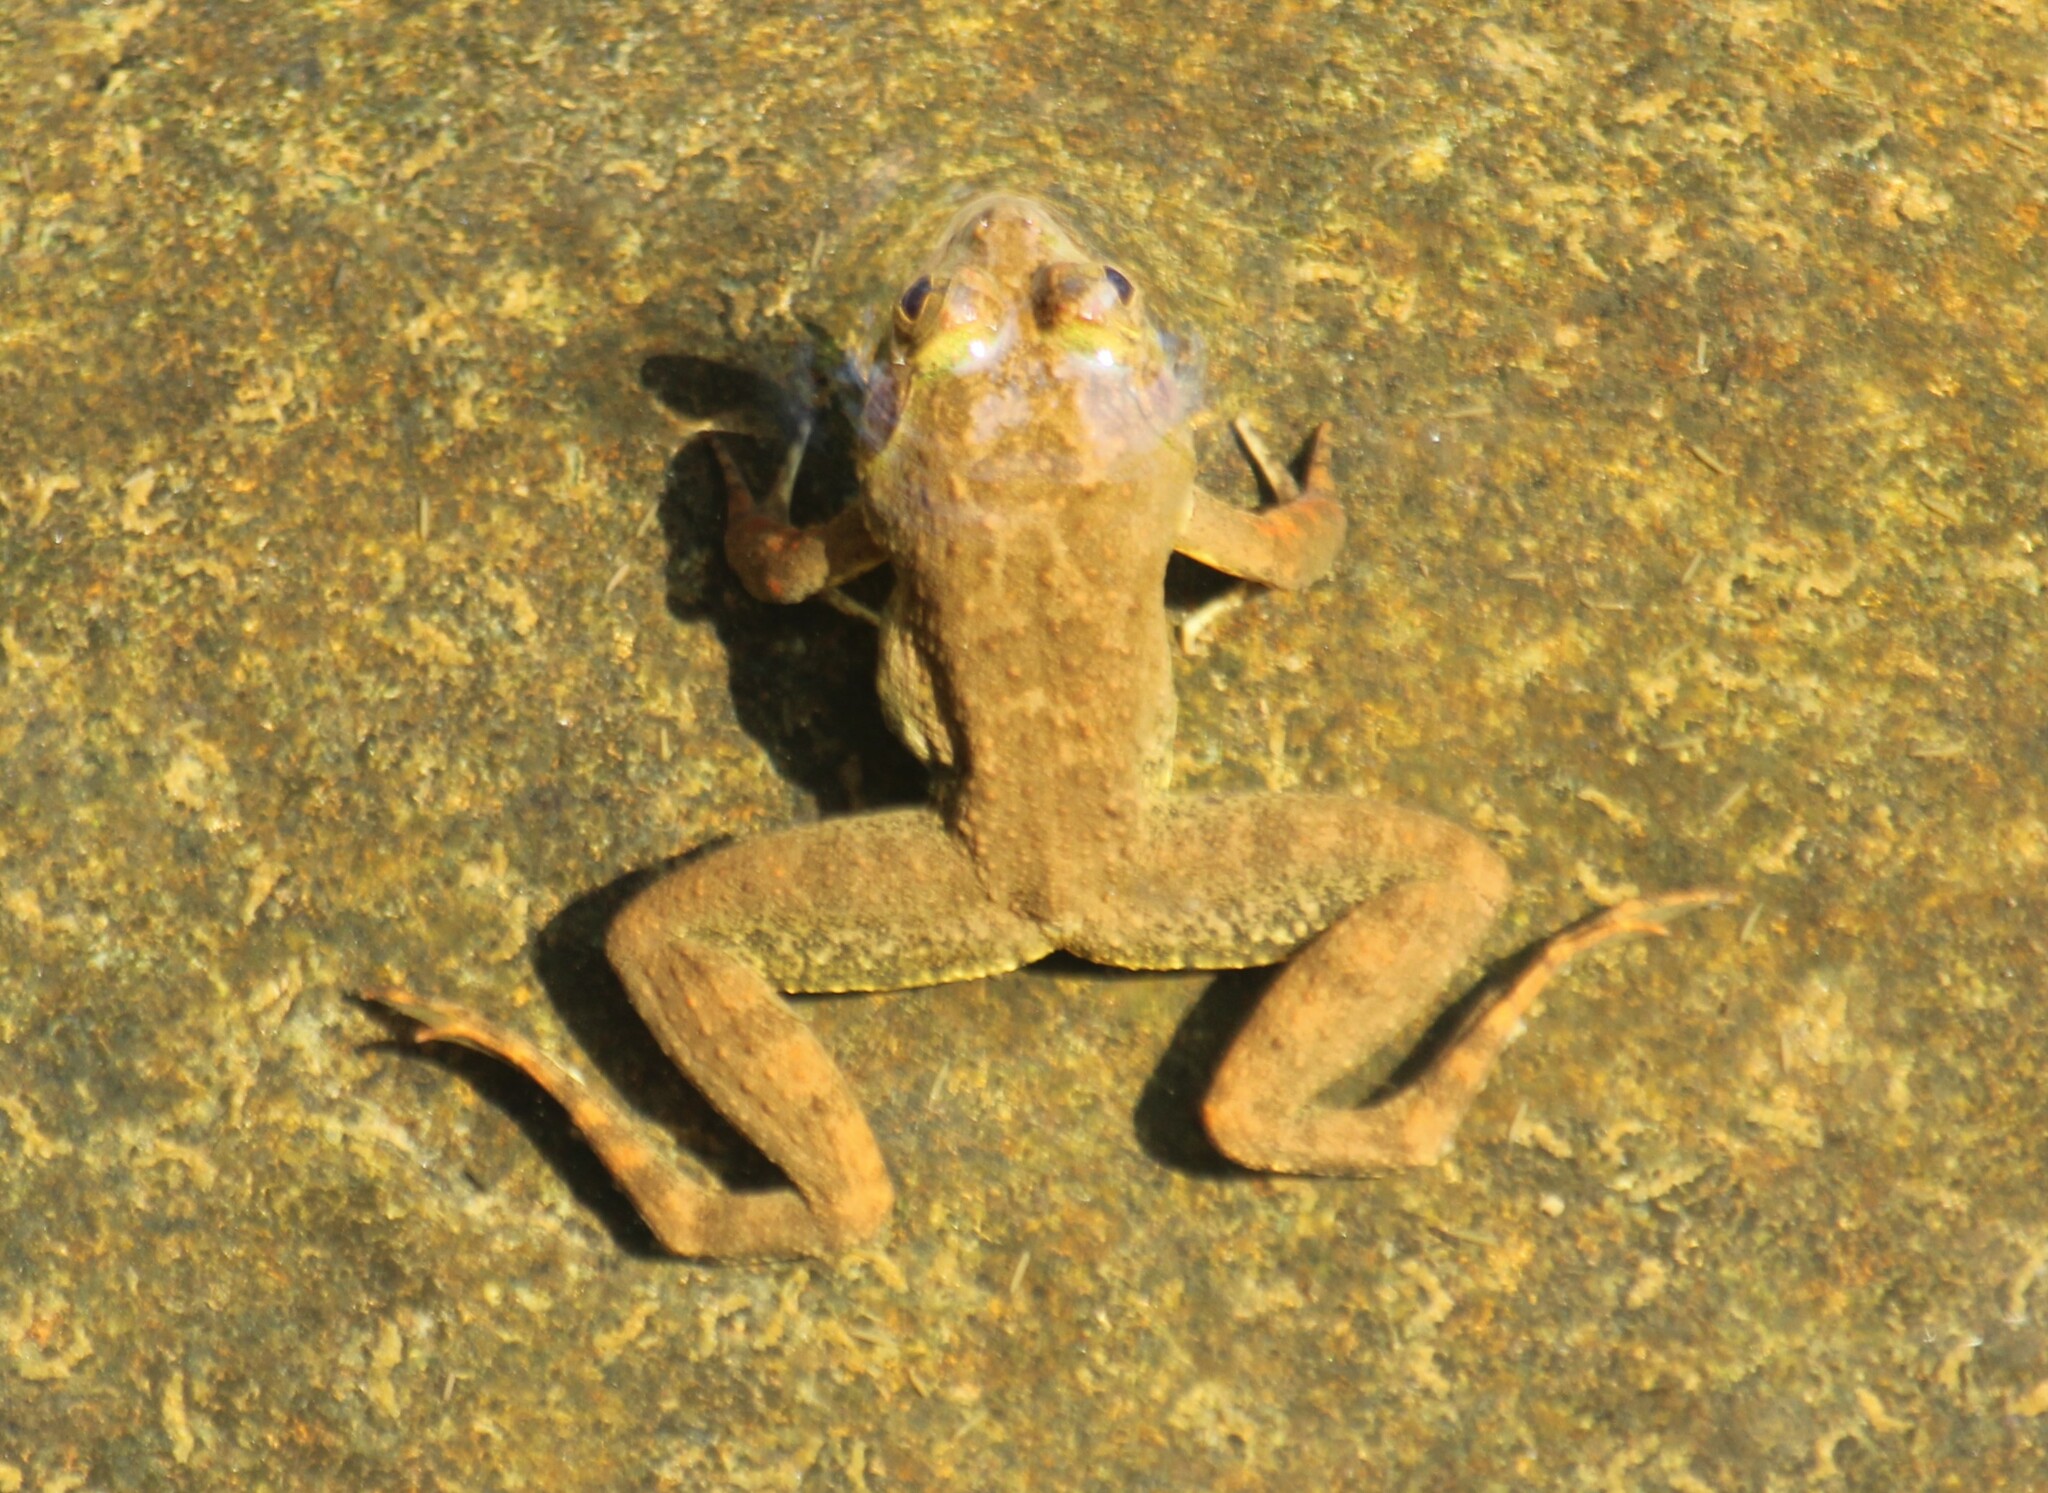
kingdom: Animalia
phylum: Chordata
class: Amphibia
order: Anura
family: Dicroglossidae
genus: Euphlyctis
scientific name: Euphlyctis cyanophlyctis
